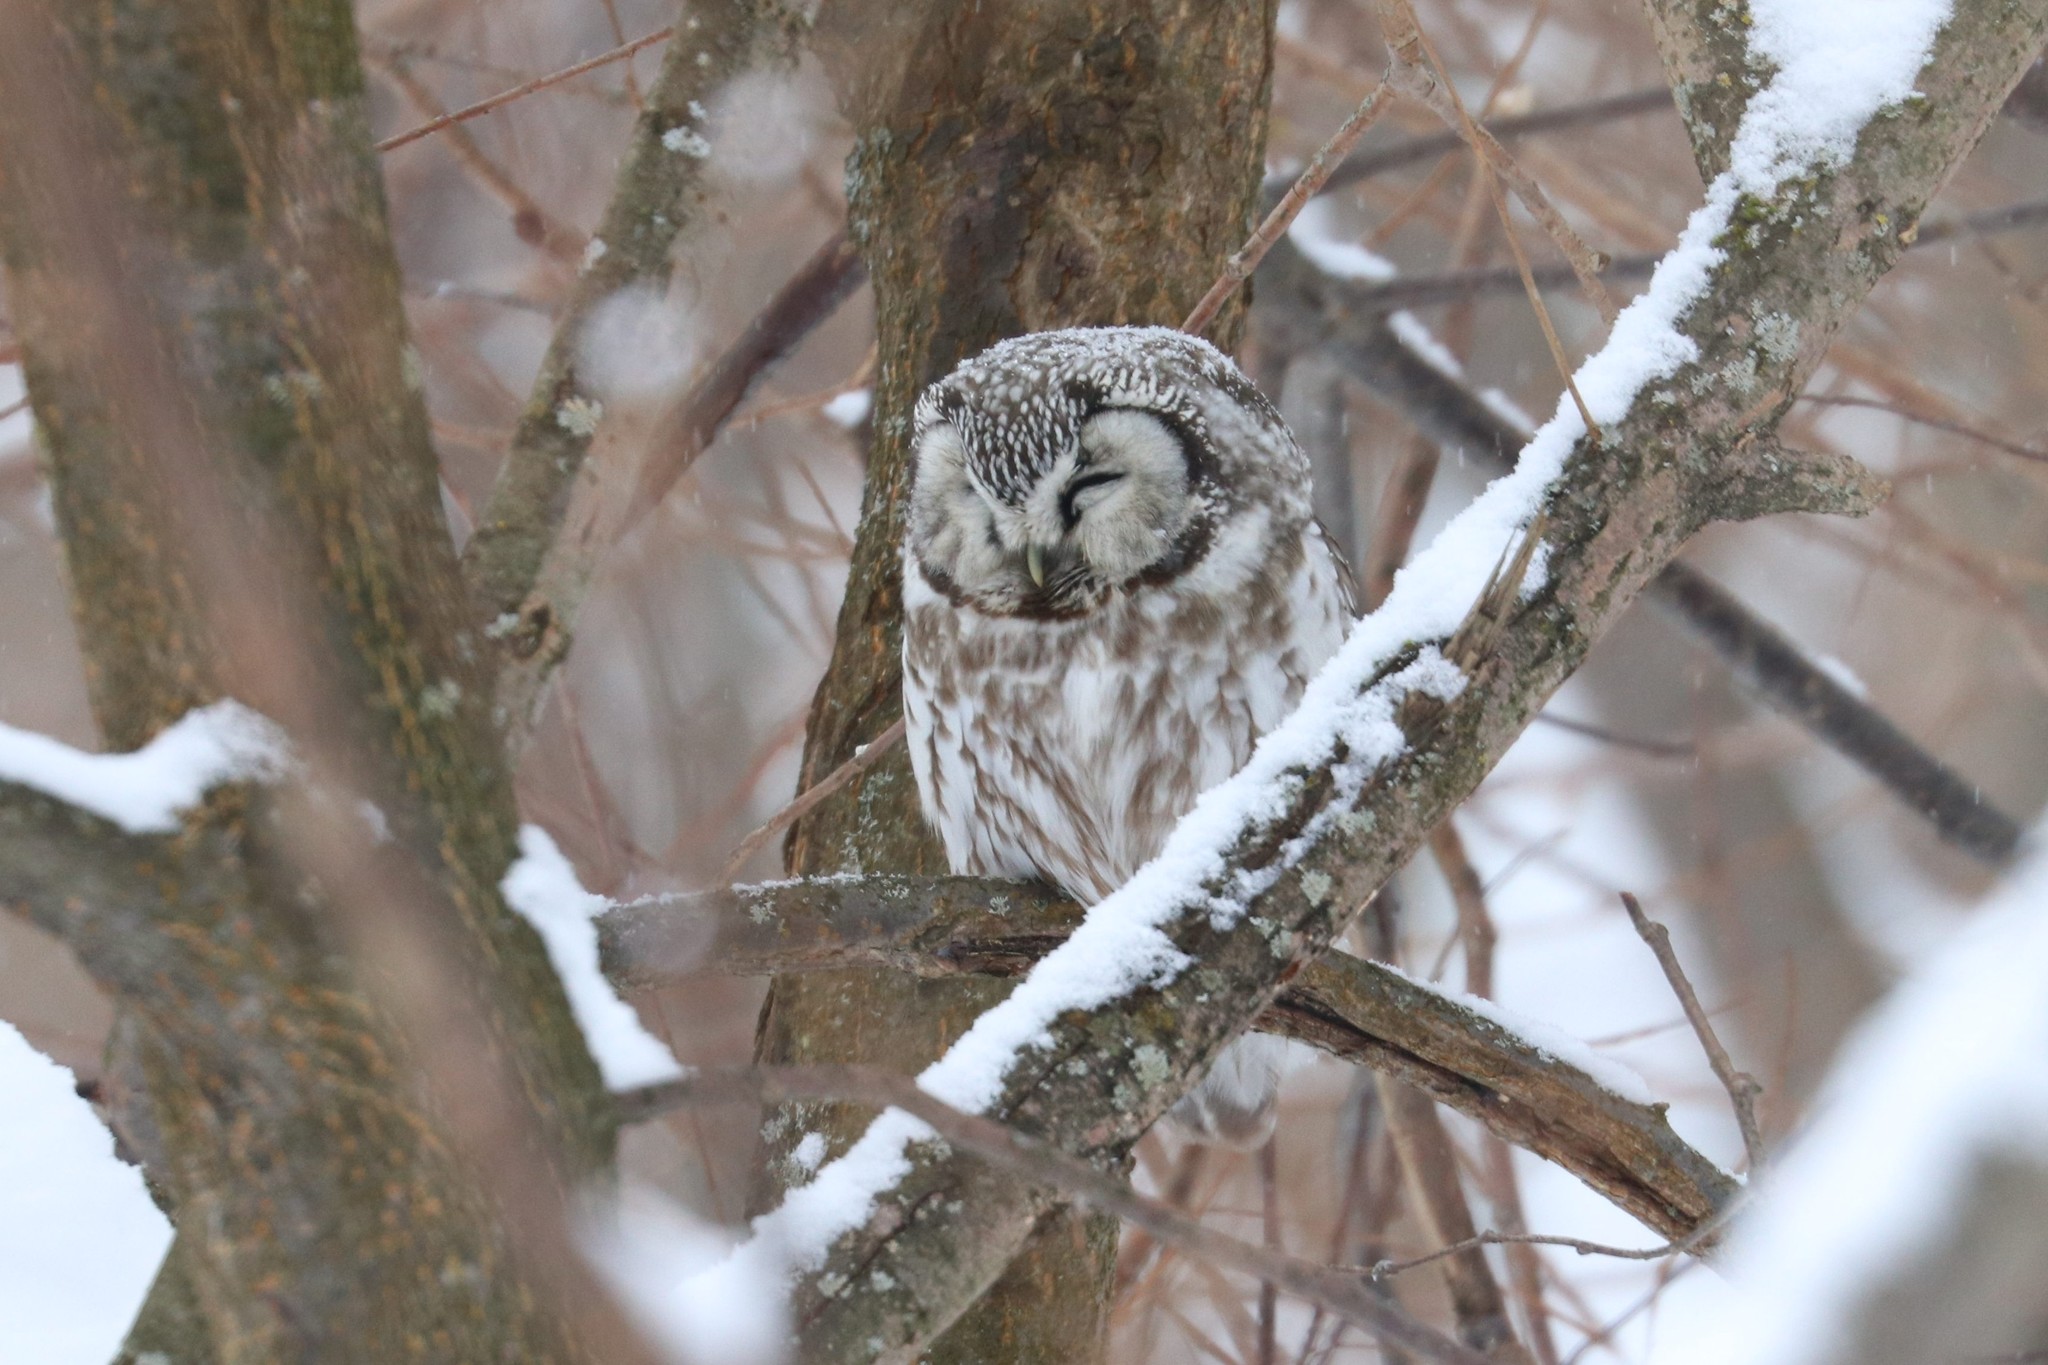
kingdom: Animalia
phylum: Chordata
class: Aves
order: Strigiformes
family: Strigidae
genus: Aegolius
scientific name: Aegolius funereus
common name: Boreal owl
